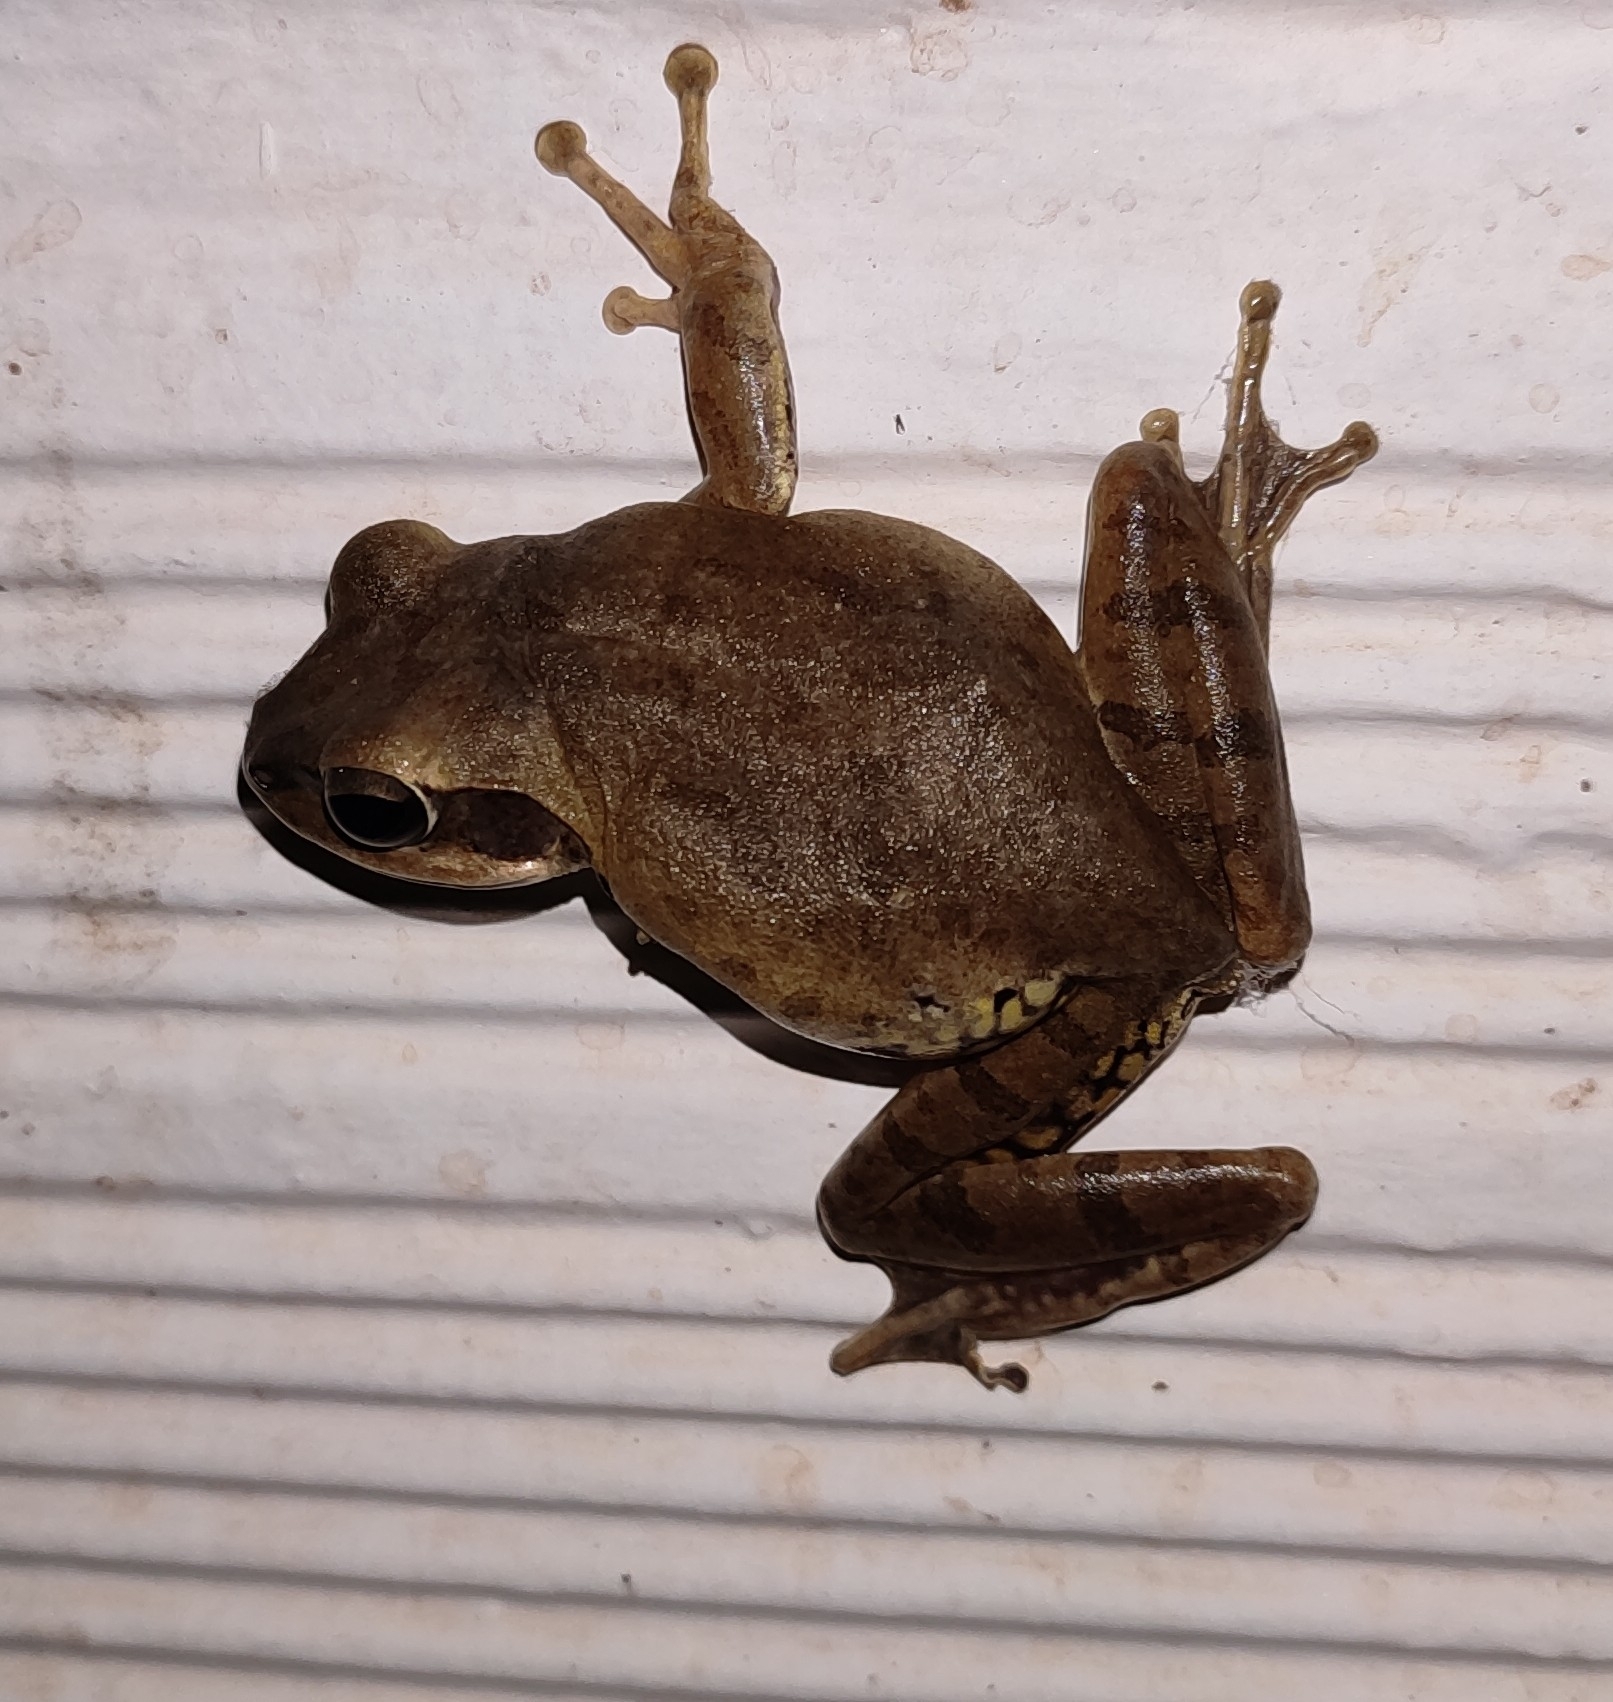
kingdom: Animalia
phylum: Chordata
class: Amphibia
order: Anura
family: Rhacophoridae
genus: Polypedates
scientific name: Polypedates maculatus
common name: Himalayan tree frog
